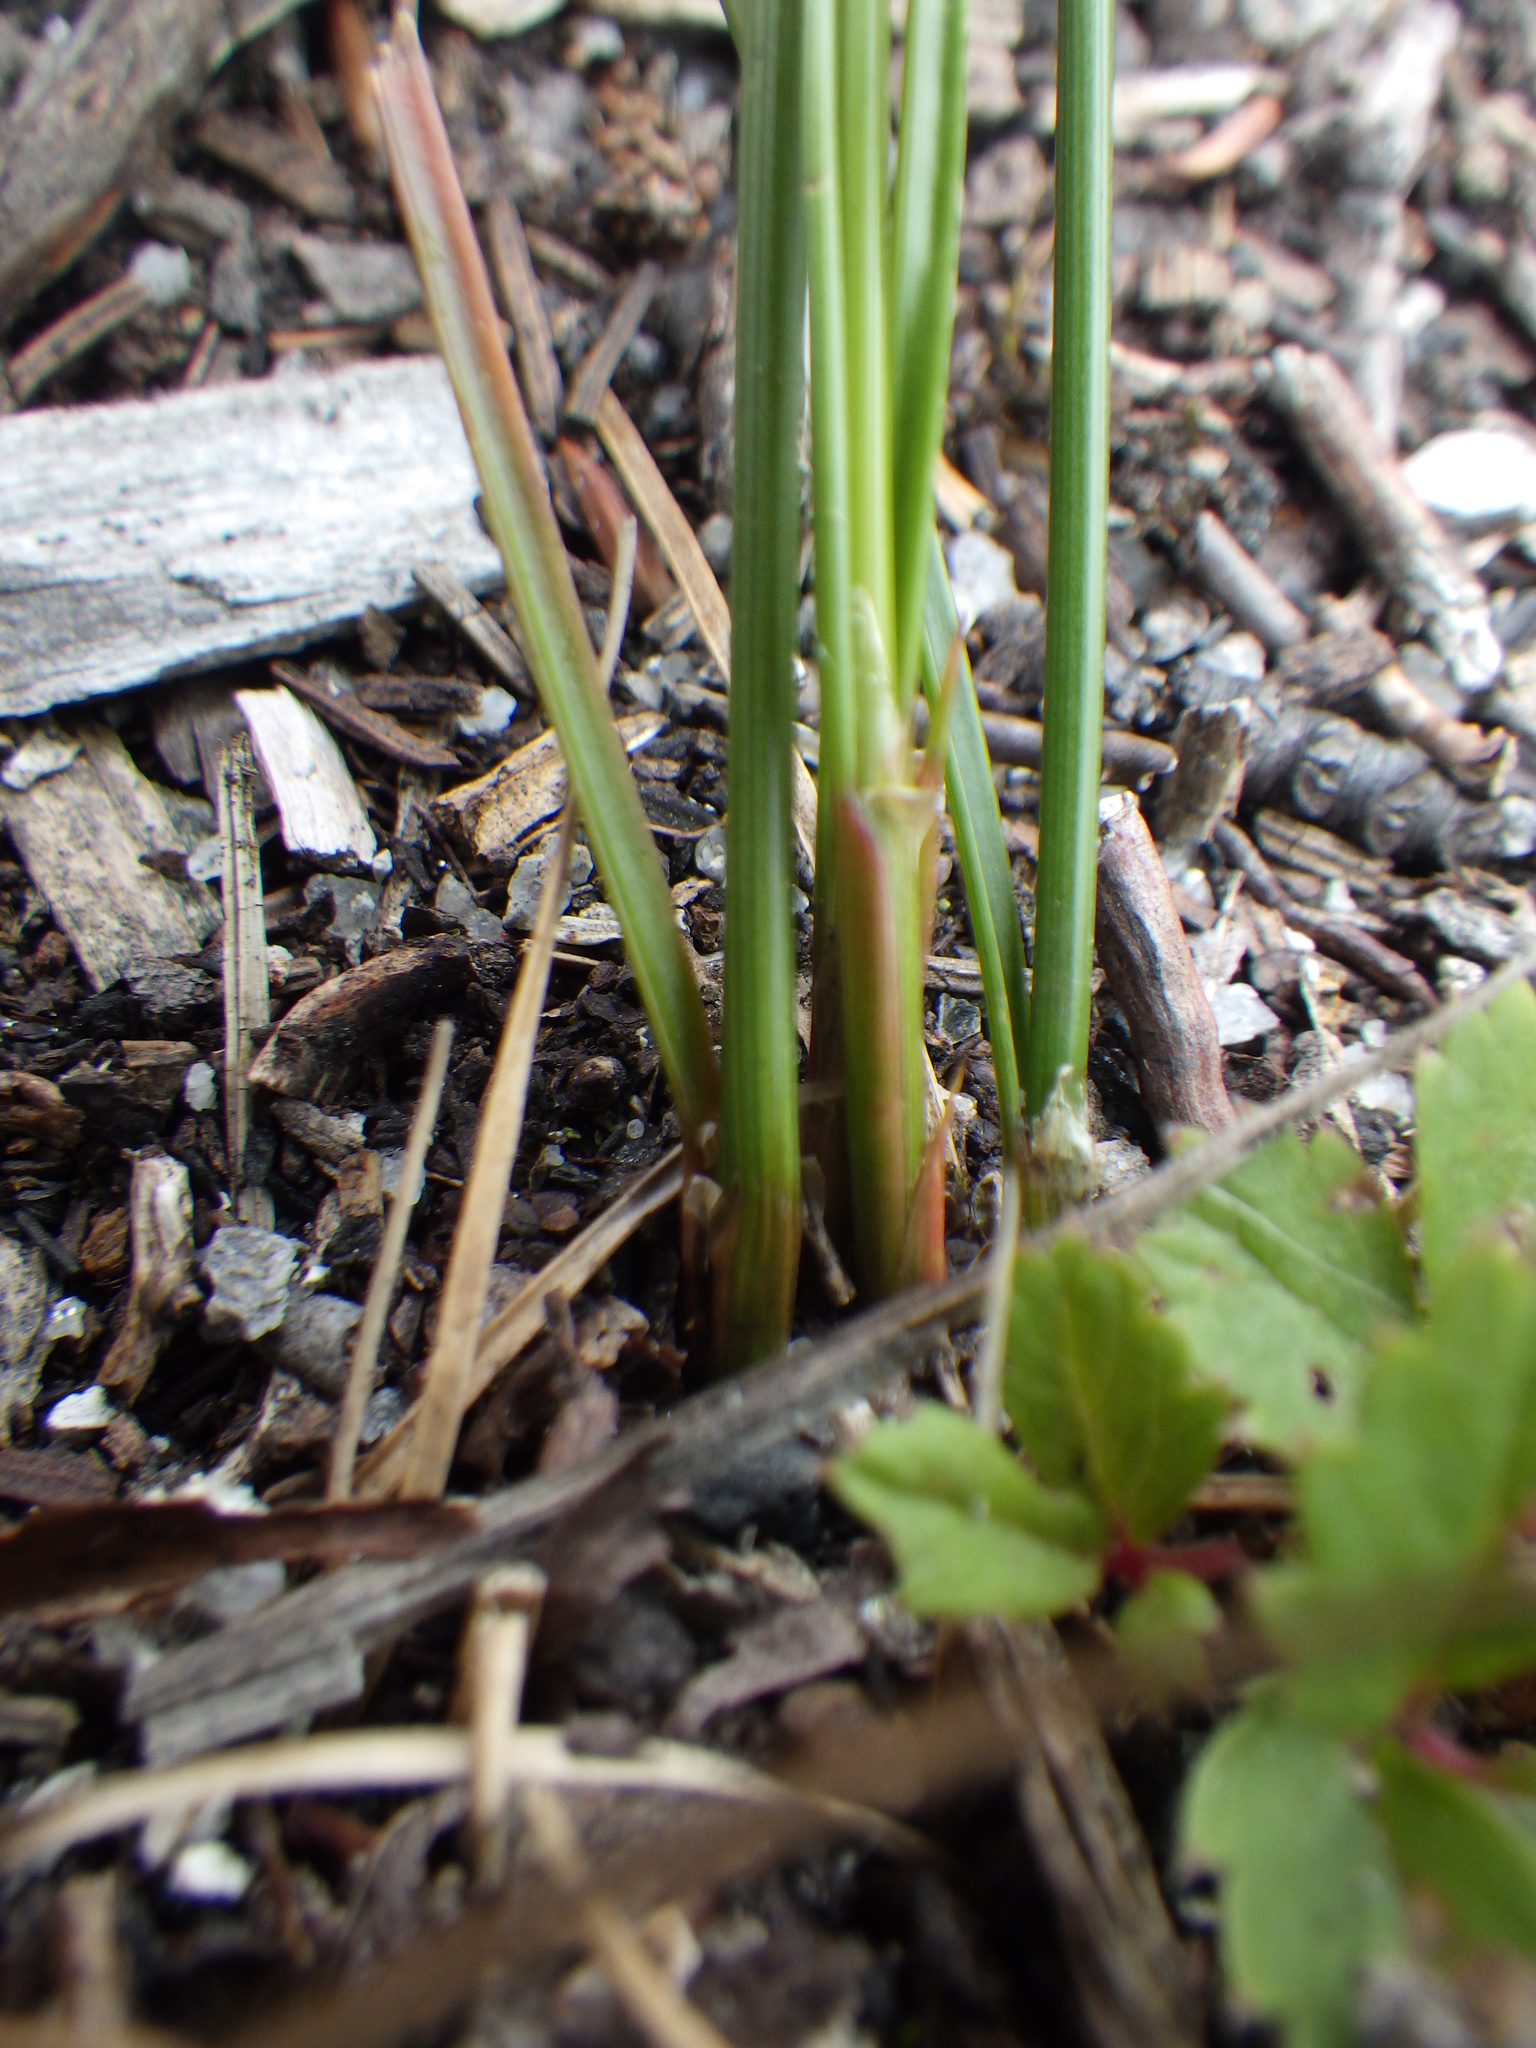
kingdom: Plantae
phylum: Tracheophyta
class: Liliopsida
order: Poales
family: Juncaceae
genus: Juncus
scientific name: Juncus tenuis
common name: Slender rush
